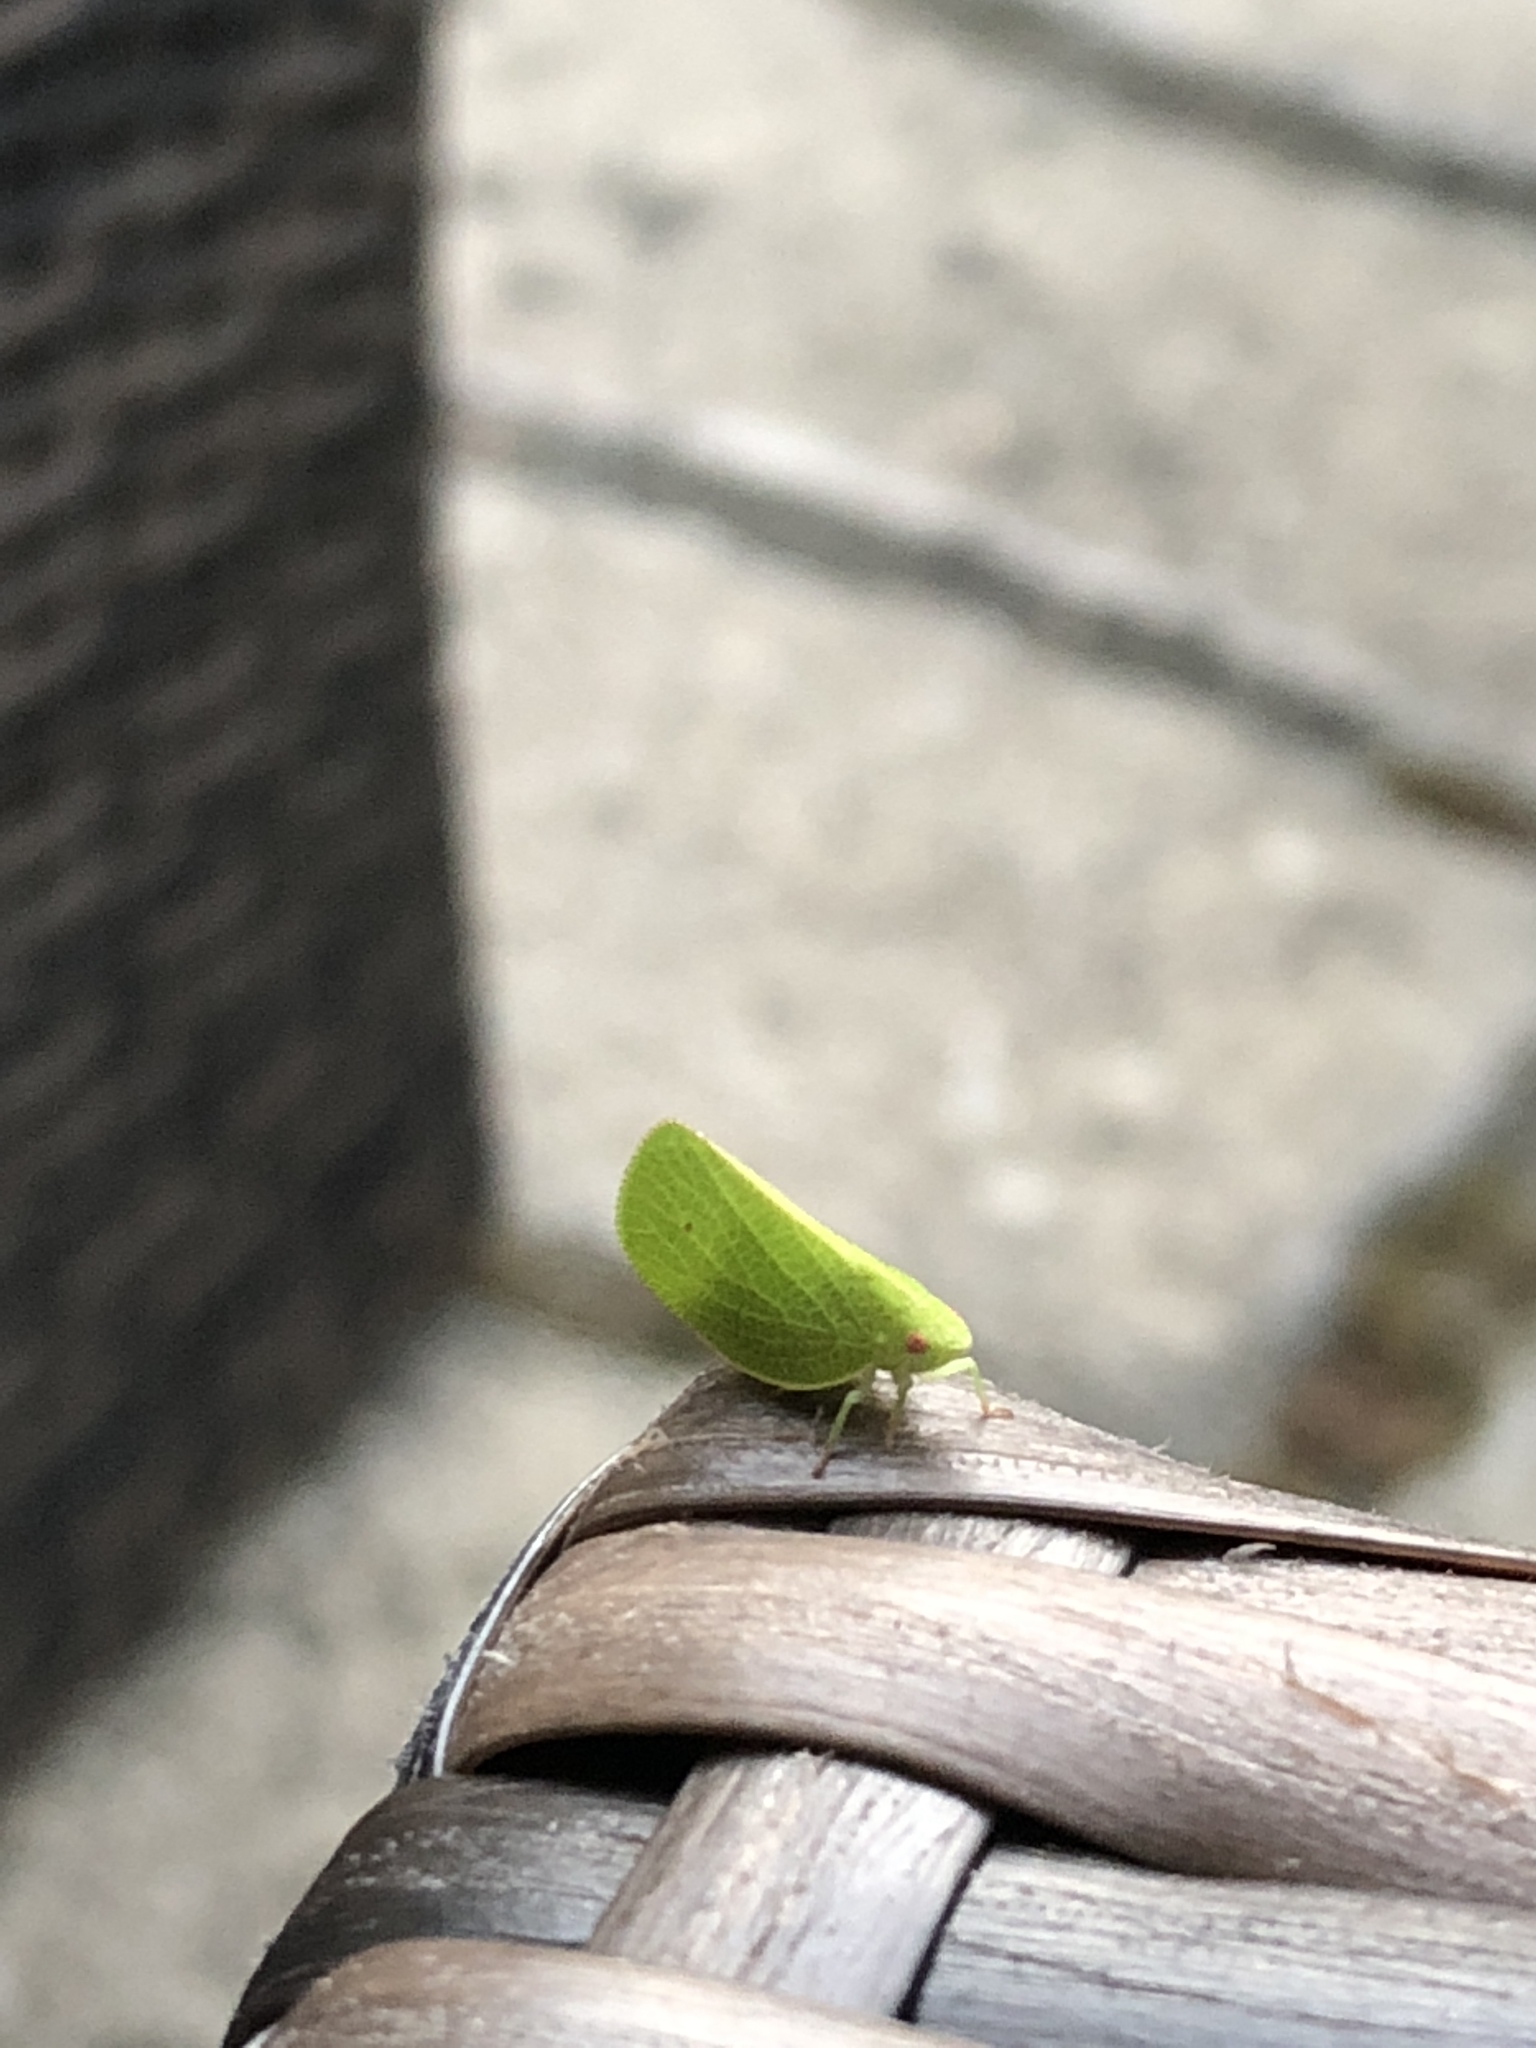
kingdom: Animalia
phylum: Arthropoda
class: Insecta
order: Hemiptera
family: Acanaloniidae
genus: Acanalonia
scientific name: Acanalonia conica
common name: Green cone-headed planthopper
